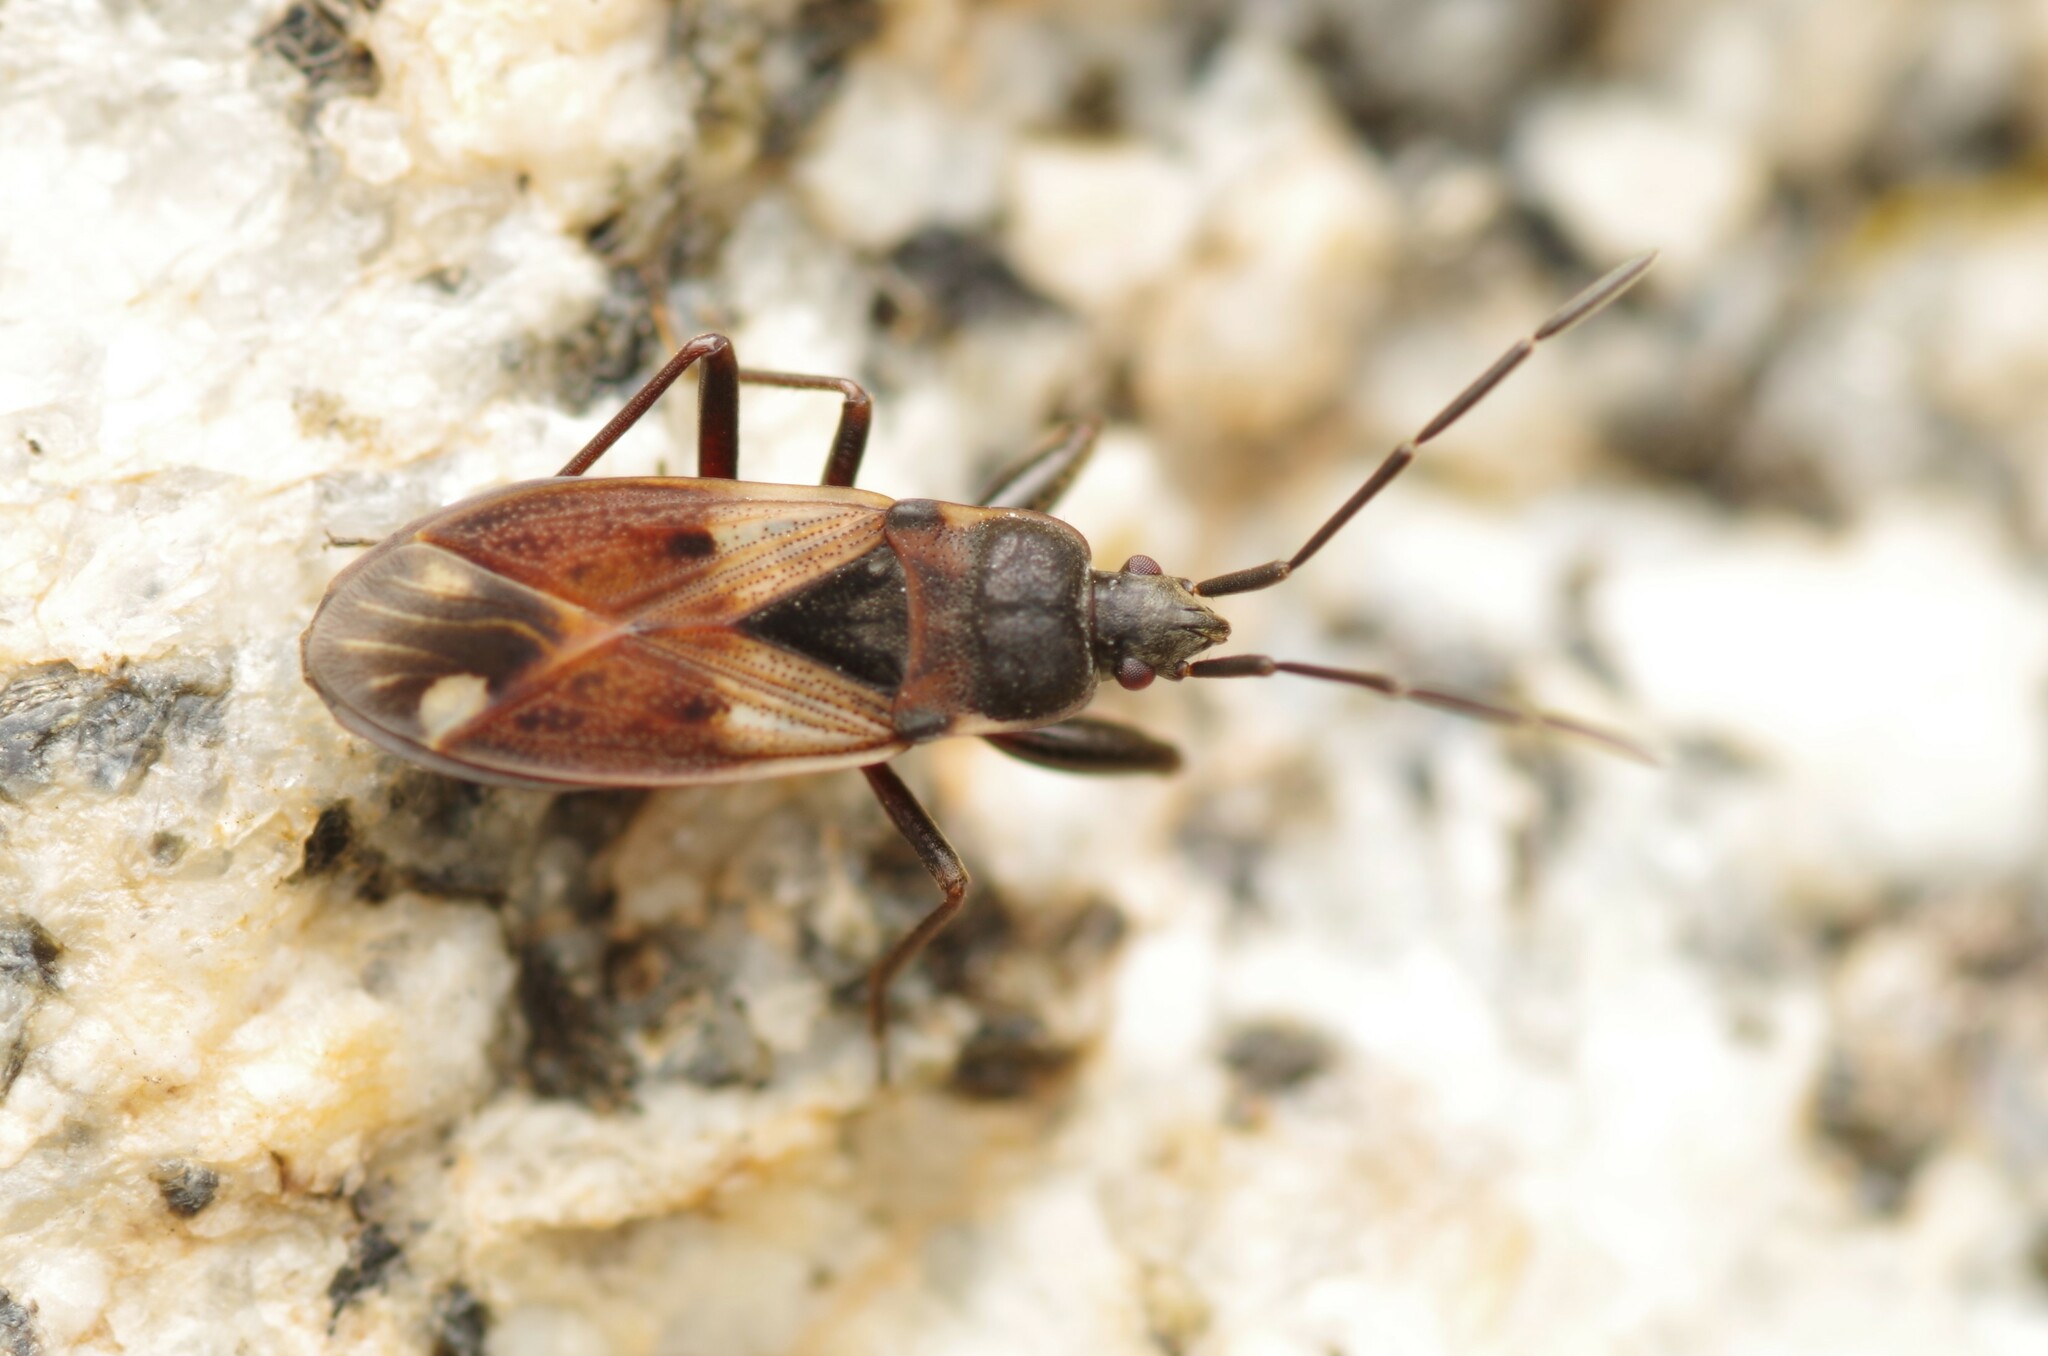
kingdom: Animalia
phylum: Arthropoda
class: Insecta
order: Hemiptera
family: Rhyparochromidae
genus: Eremocoris
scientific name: Eremocoris abietis
